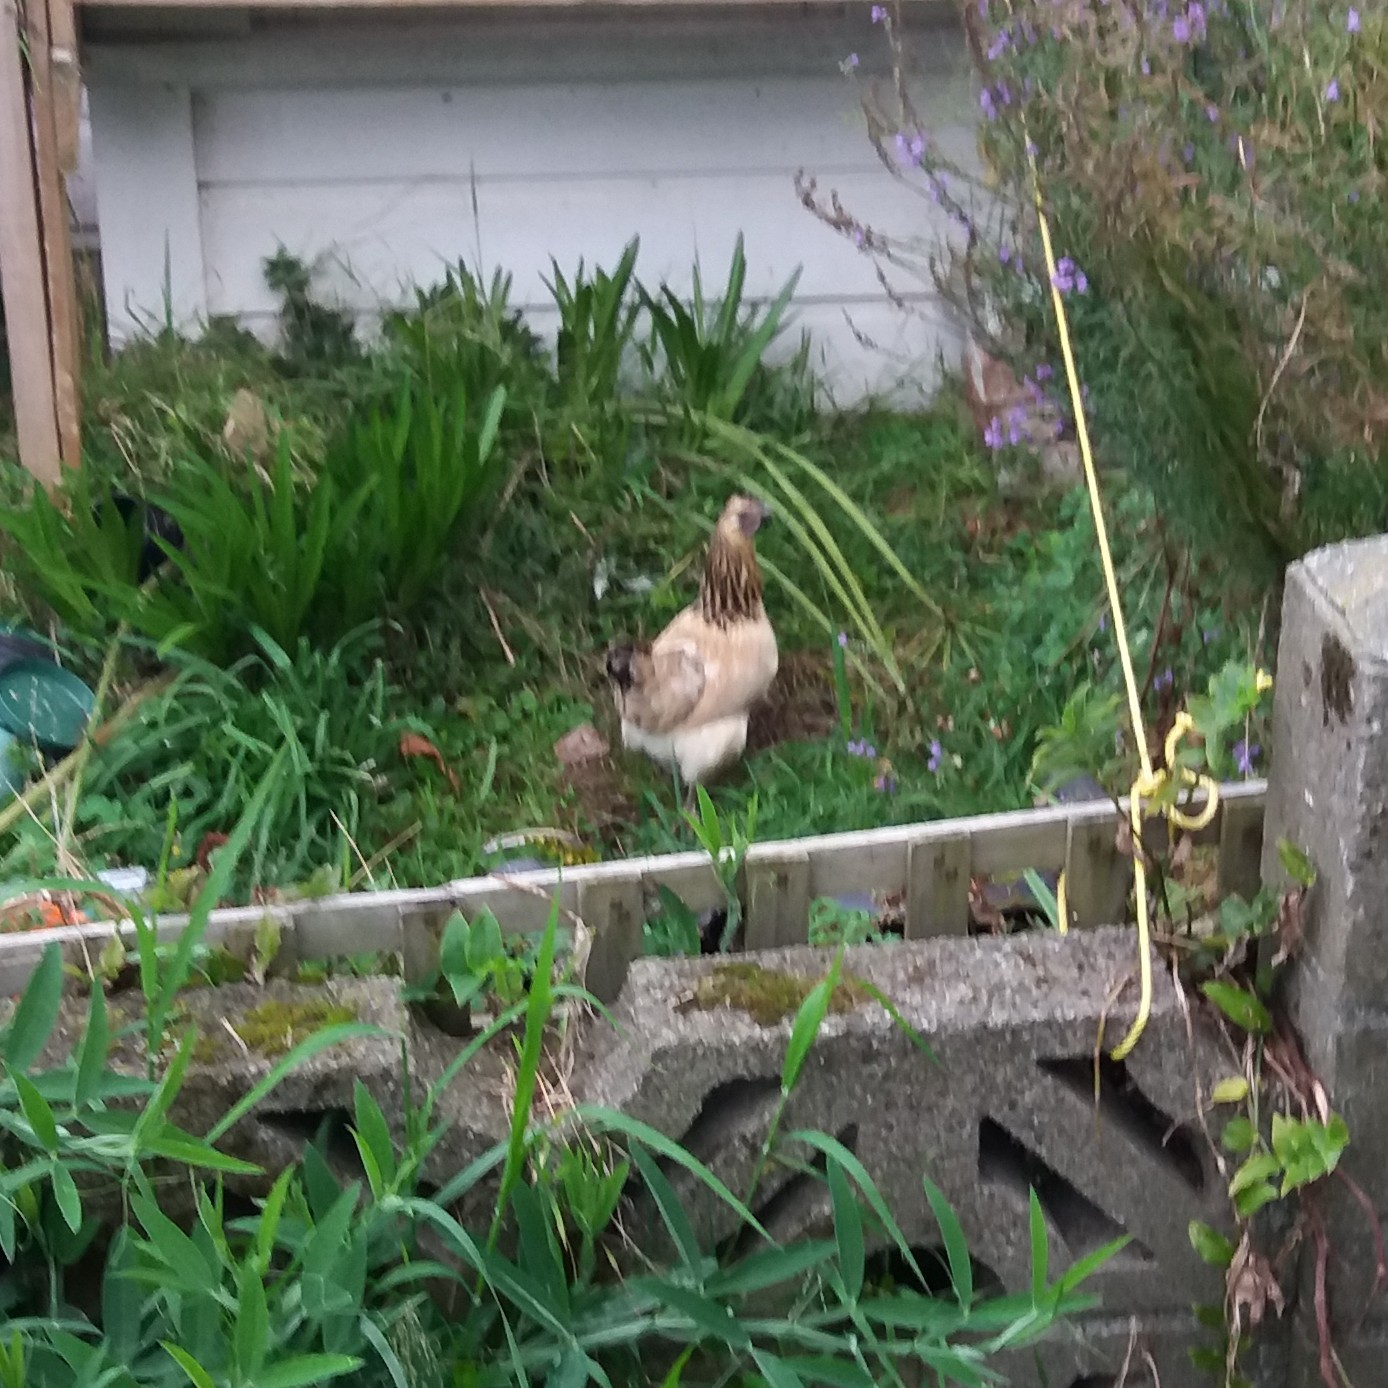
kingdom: Animalia
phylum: Chordata
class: Aves
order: Galliformes
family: Phasianidae
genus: Gallus
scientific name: Gallus gallus
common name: Red junglefowl
